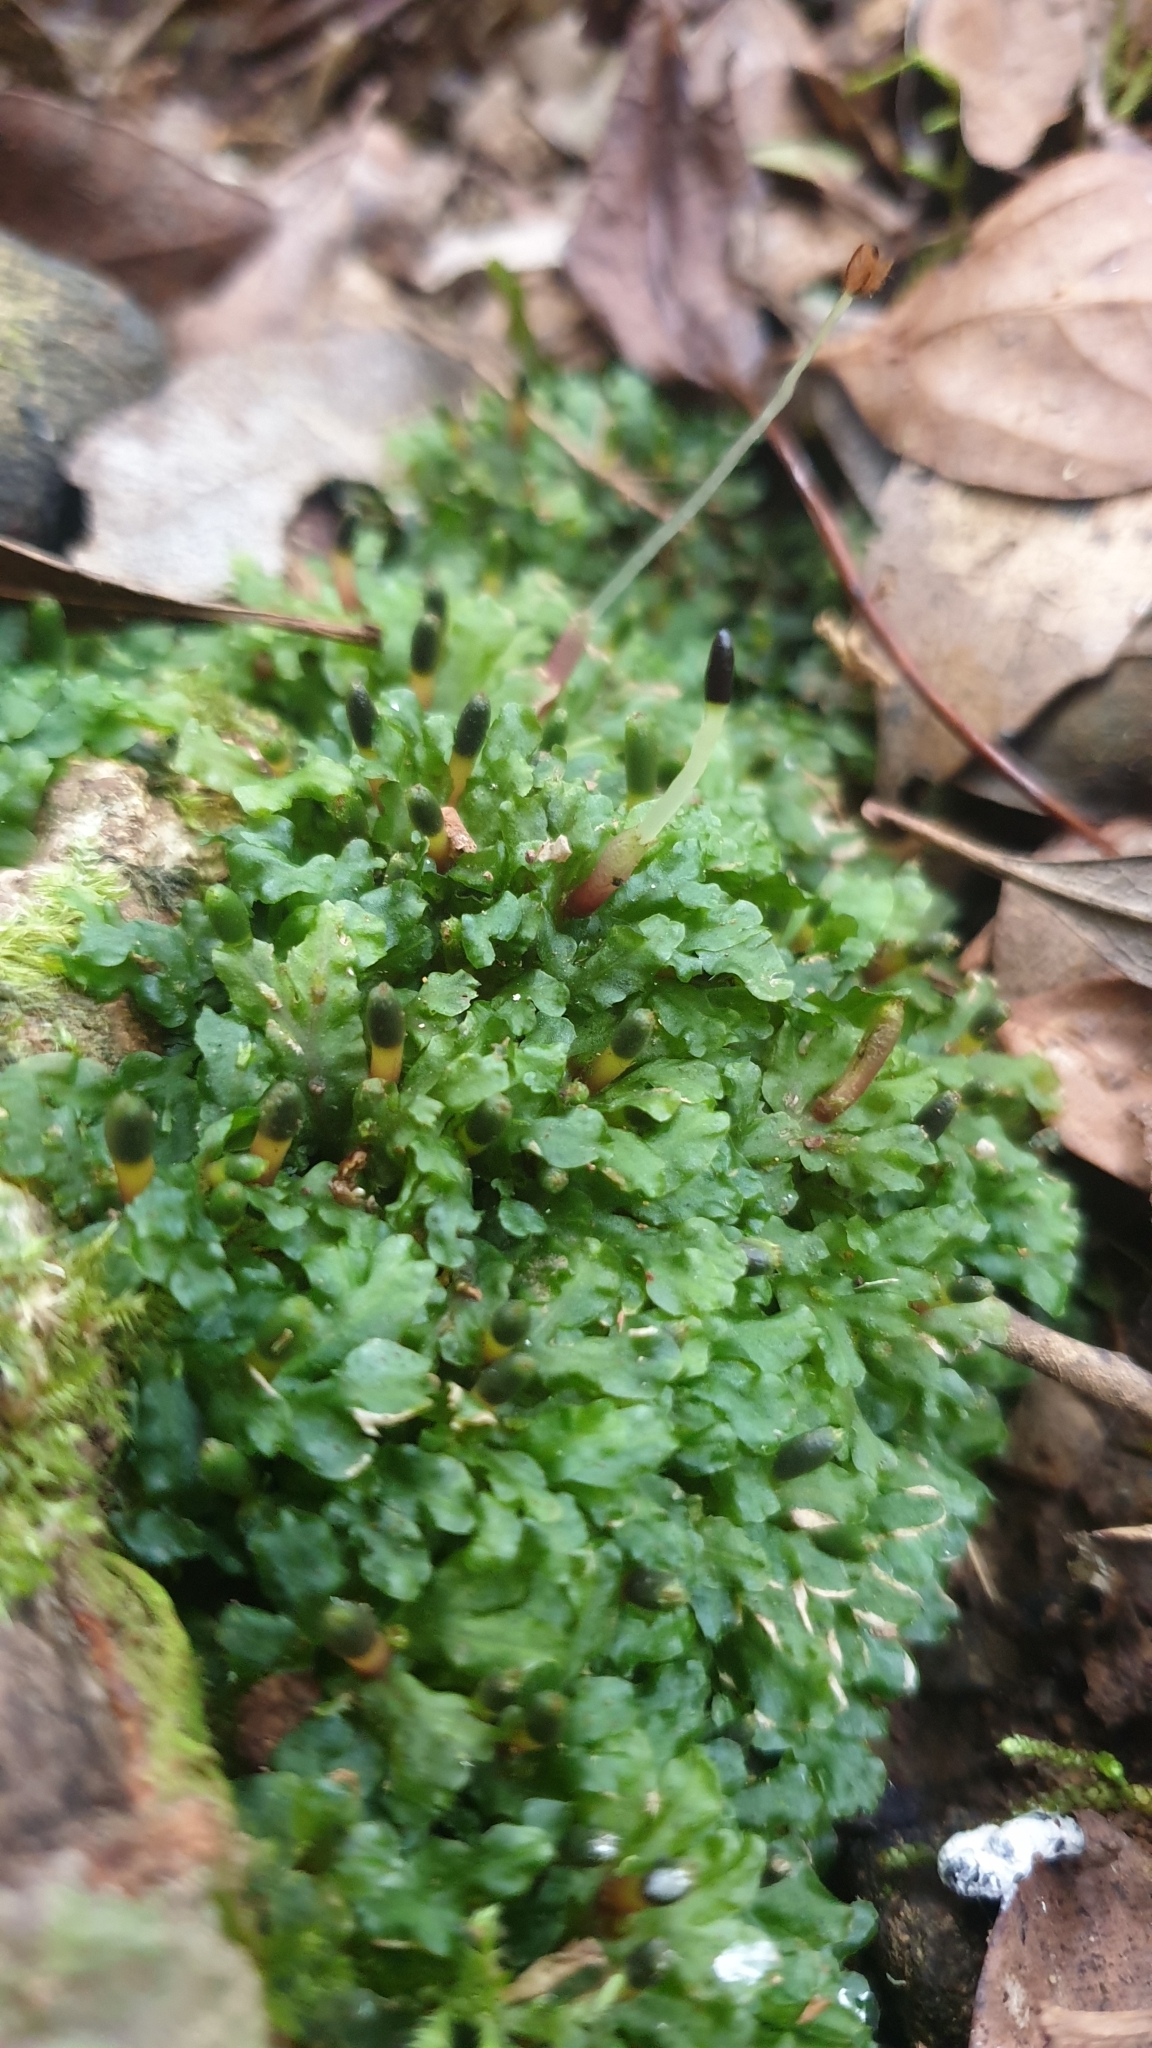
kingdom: Plantae
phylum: Marchantiophyta
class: Jungermanniopsida
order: Pallaviciniales
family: Pallaviciniaceae
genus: Symphyogyna
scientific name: Symphyogyna podophylla
